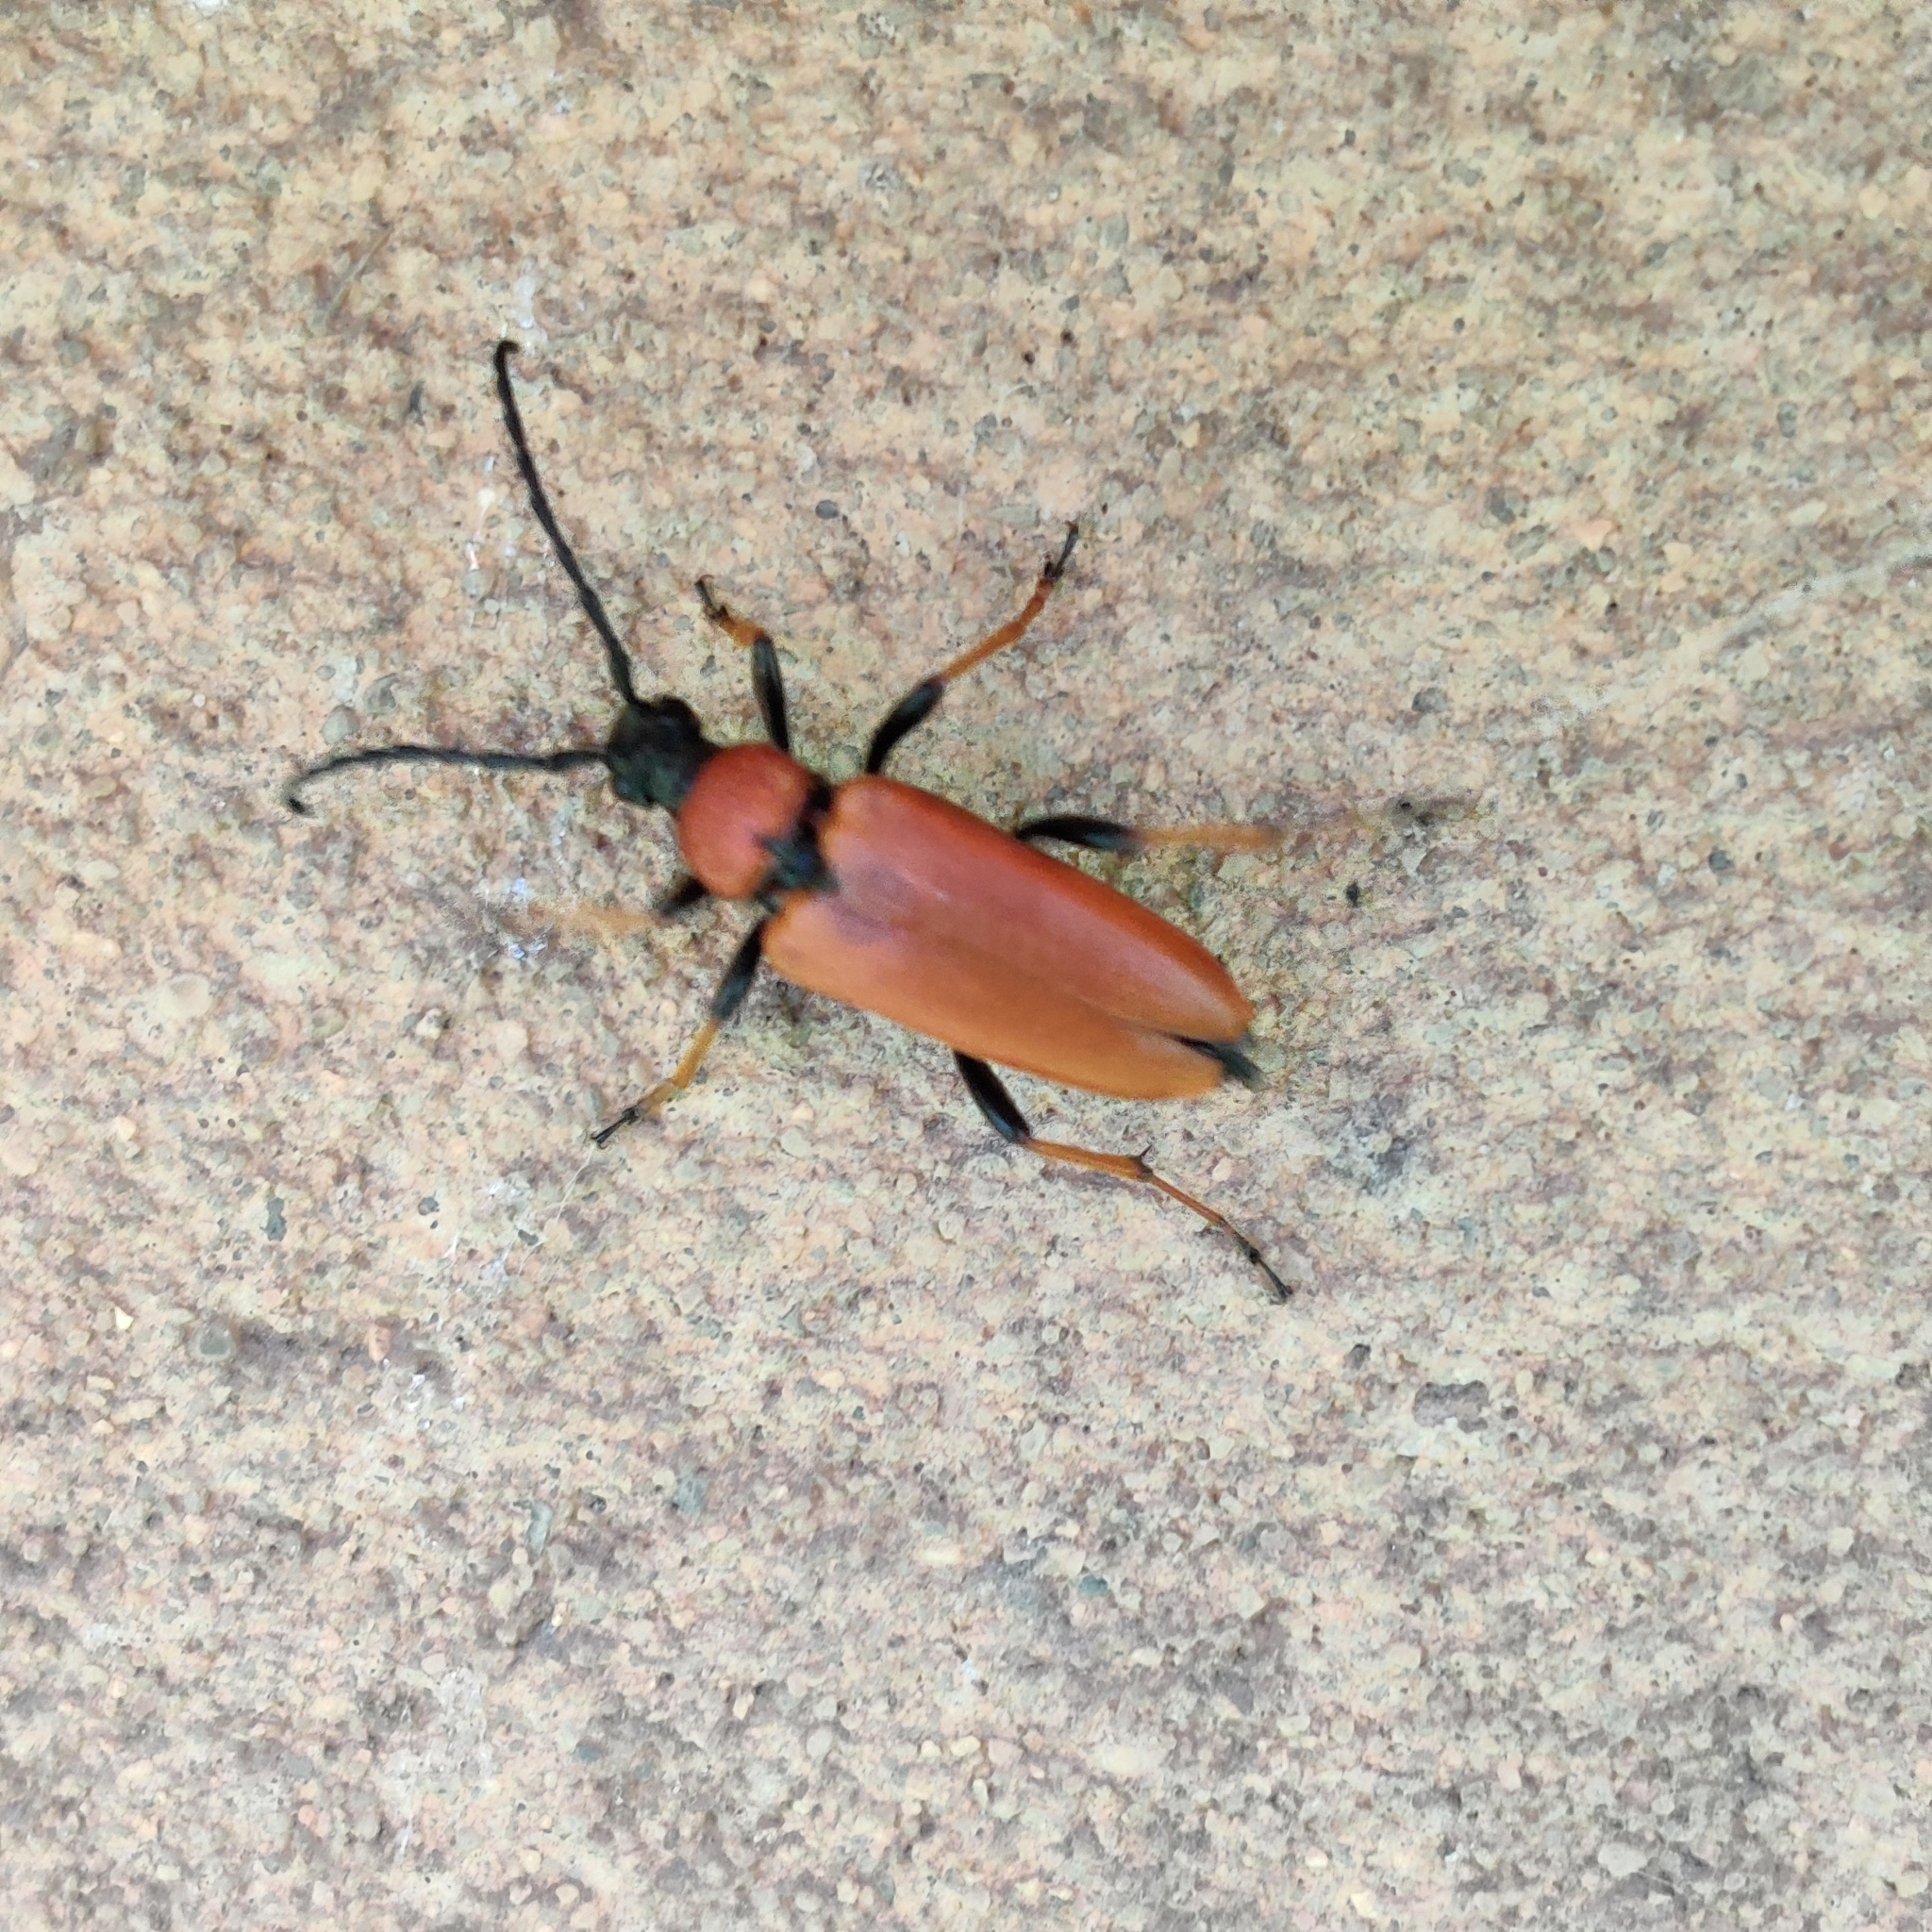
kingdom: Animalia
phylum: Arthropoda
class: Insecta
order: Coleoptera
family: Cerambycidae
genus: Stictoleptura
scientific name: Stictoleptura rubra
